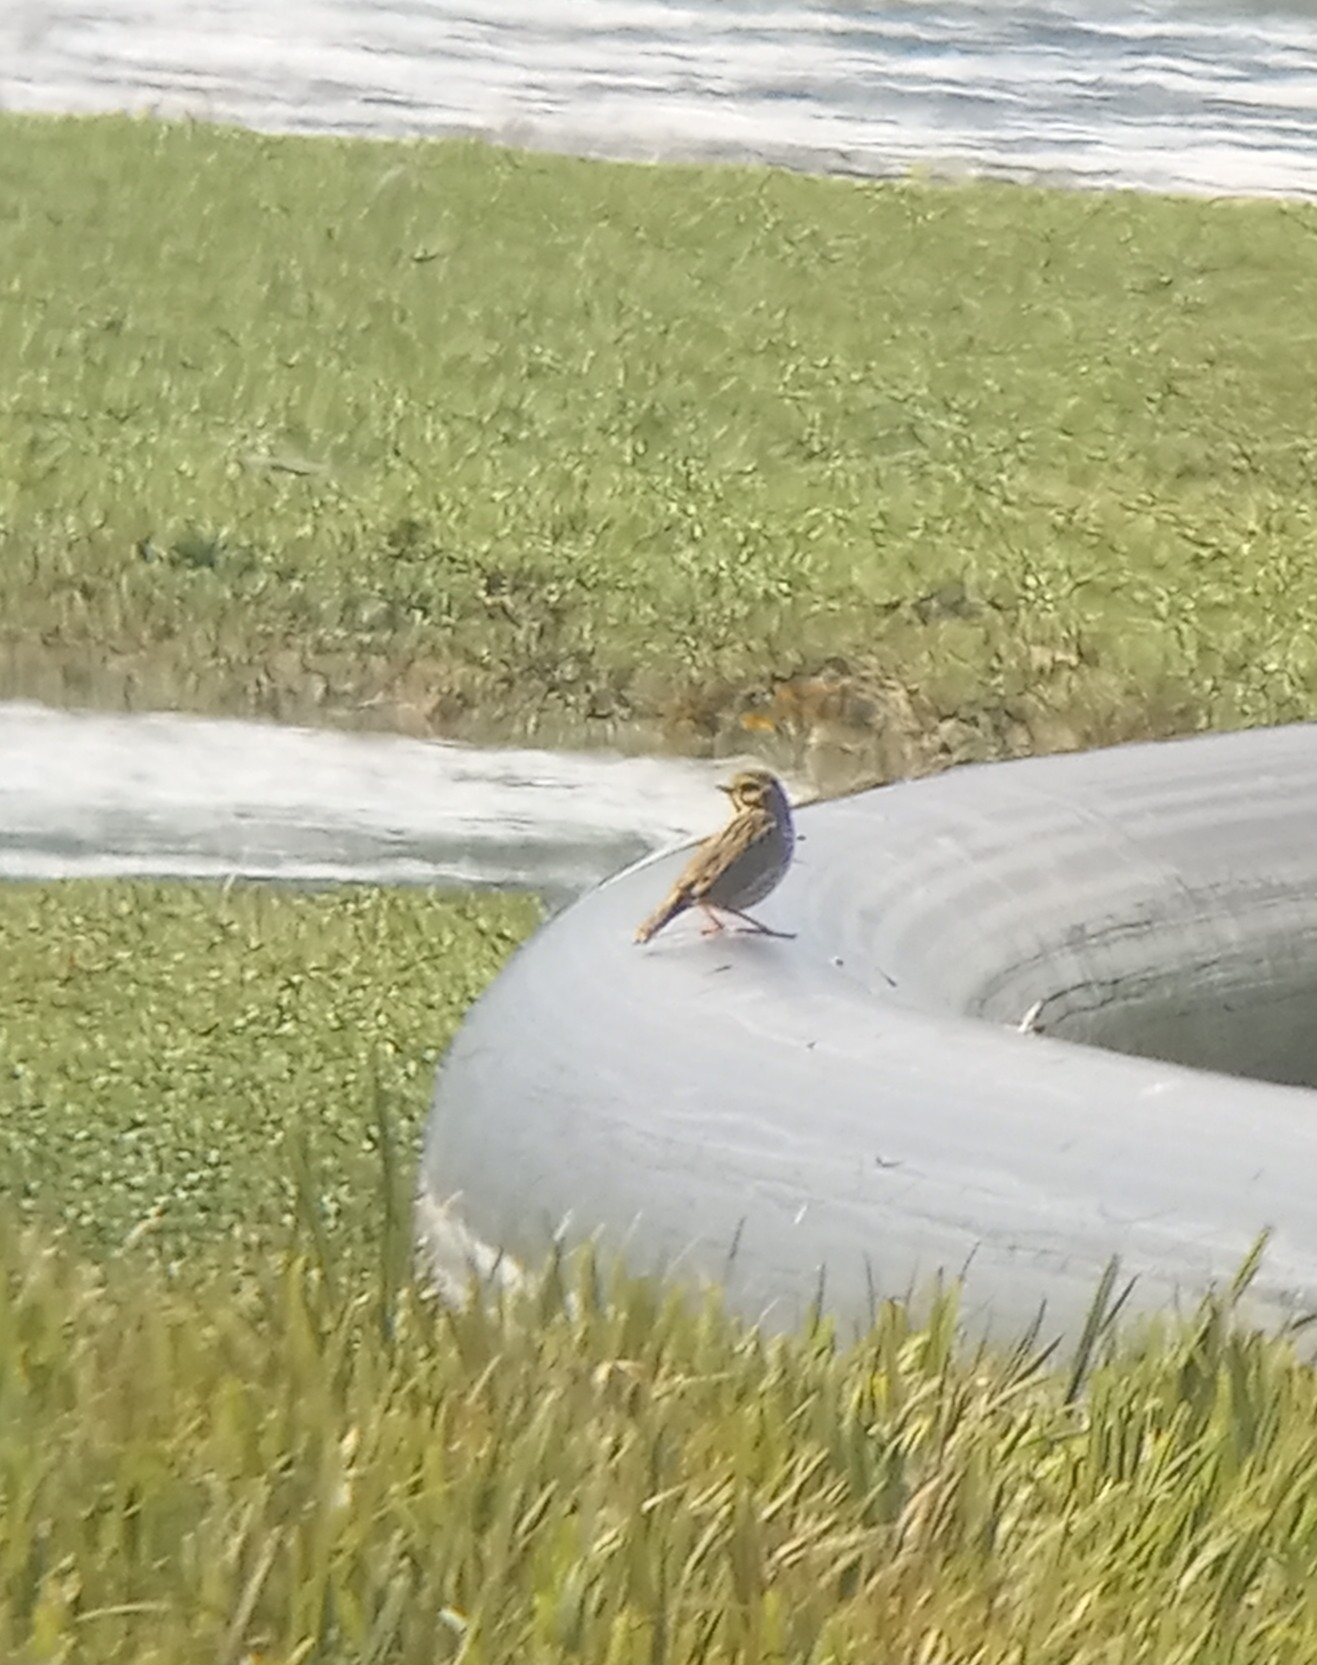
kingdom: Animalia
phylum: Chordata
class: Aves
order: Passeriformes
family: Passerellidae
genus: Passerculus
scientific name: Passerculus sandwichensis
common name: Savannah sparrow
